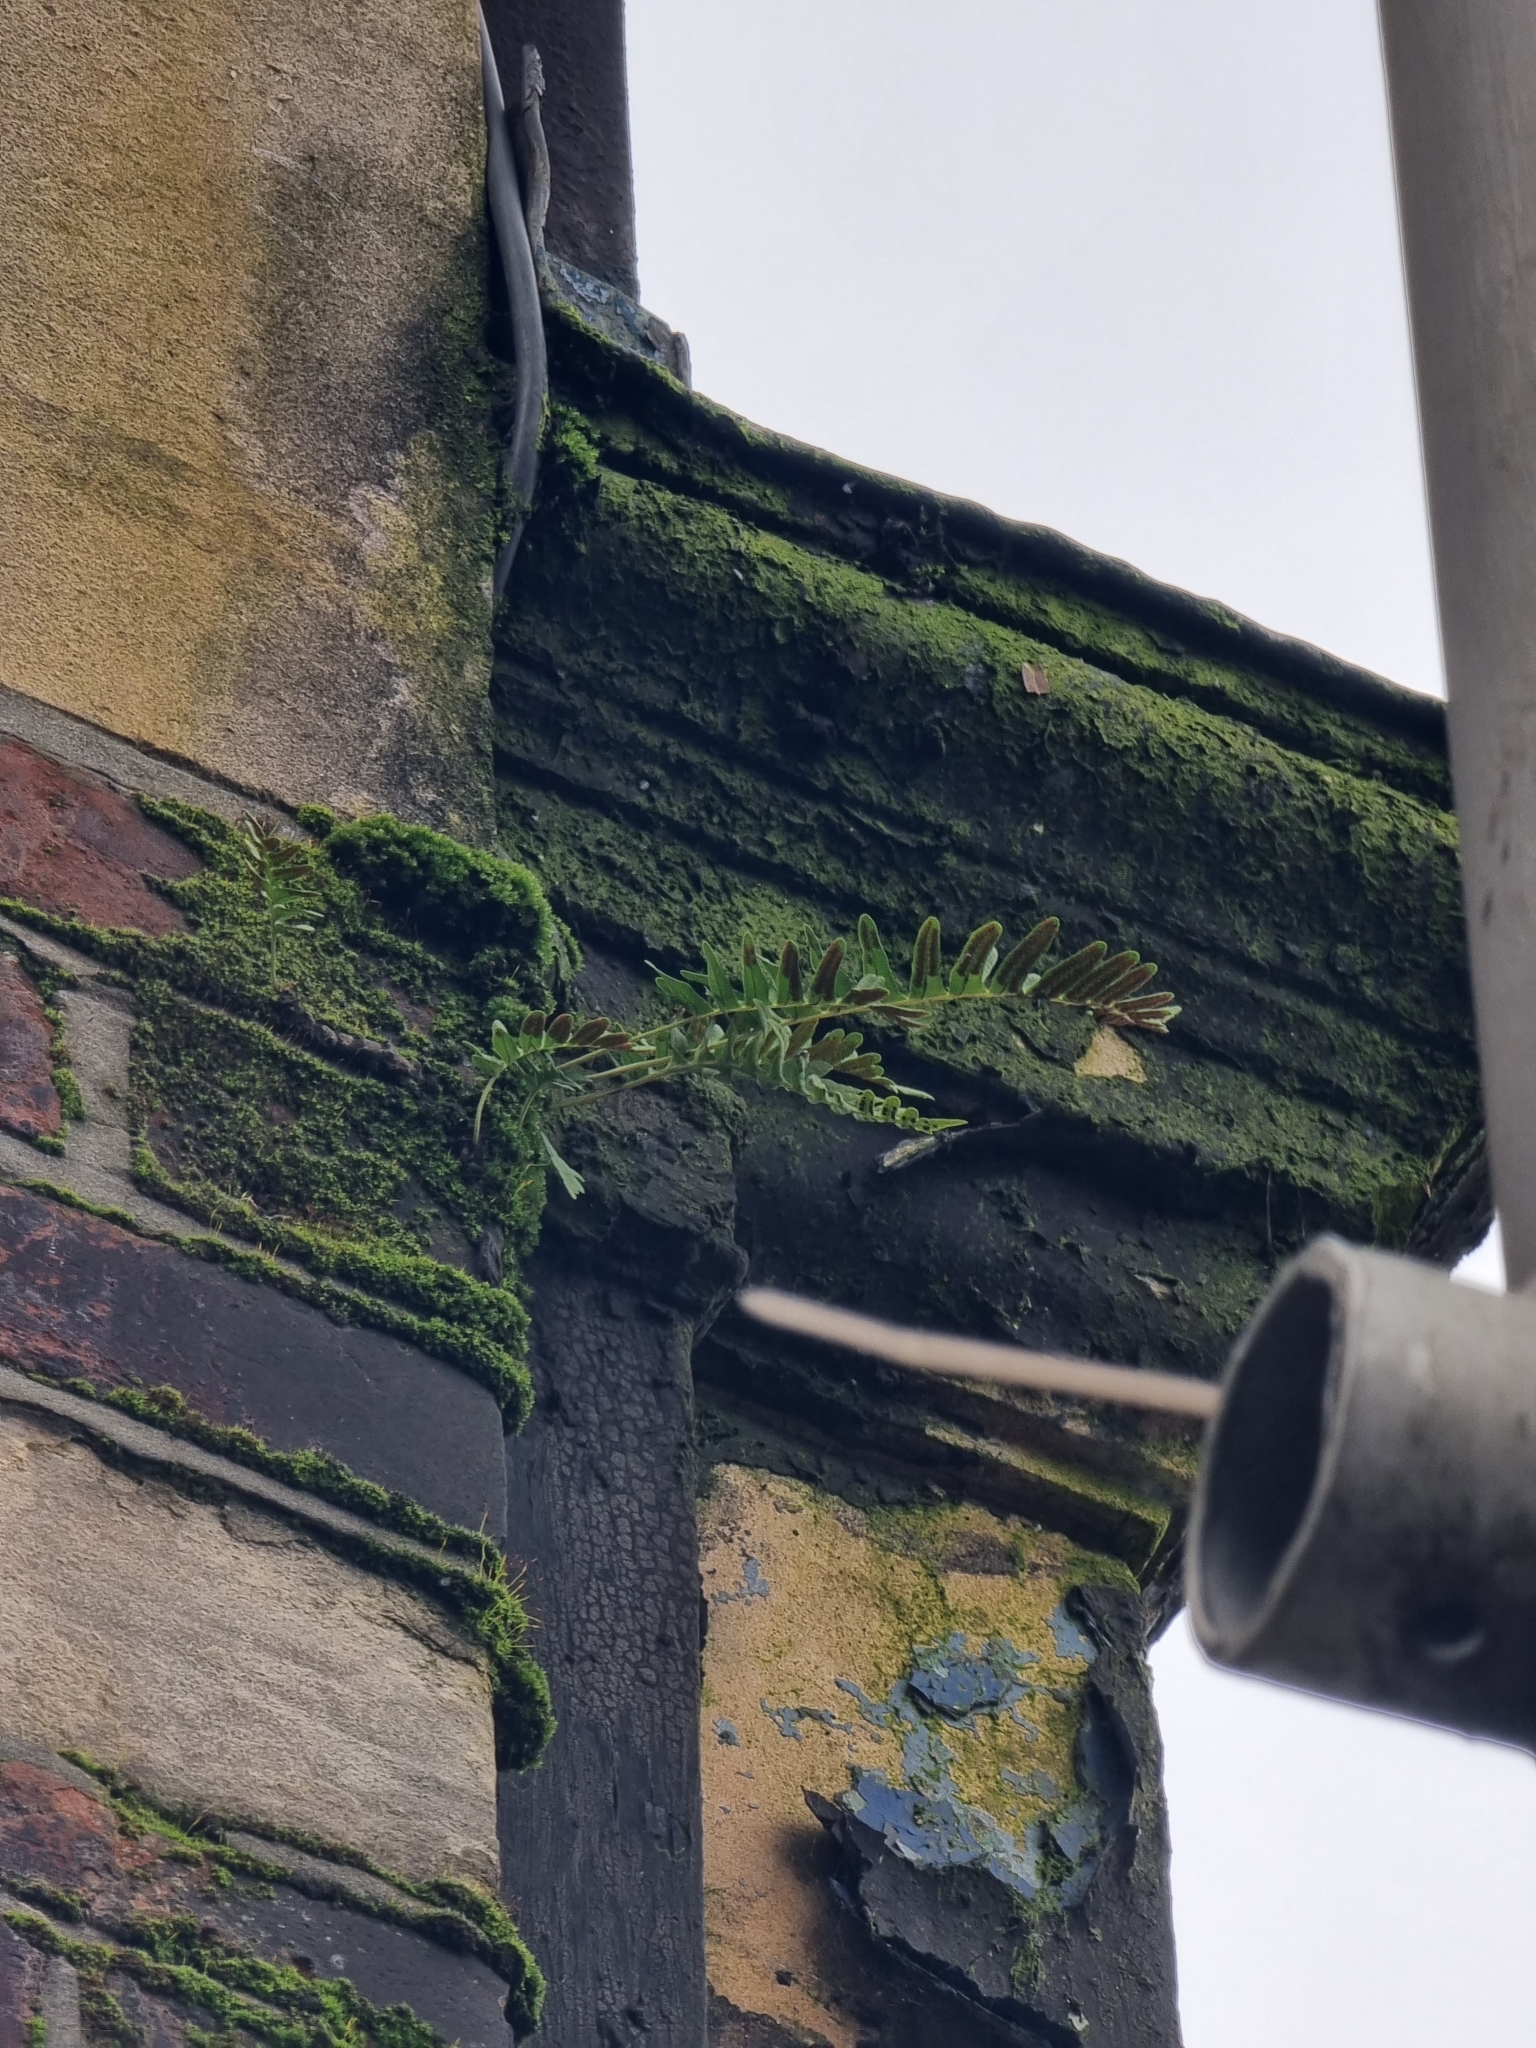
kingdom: Plantae
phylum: Tracheophyta
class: Polypodiopsida
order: Polypodiales
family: Polypodiaceae
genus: Polypodium
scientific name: Polypodium
